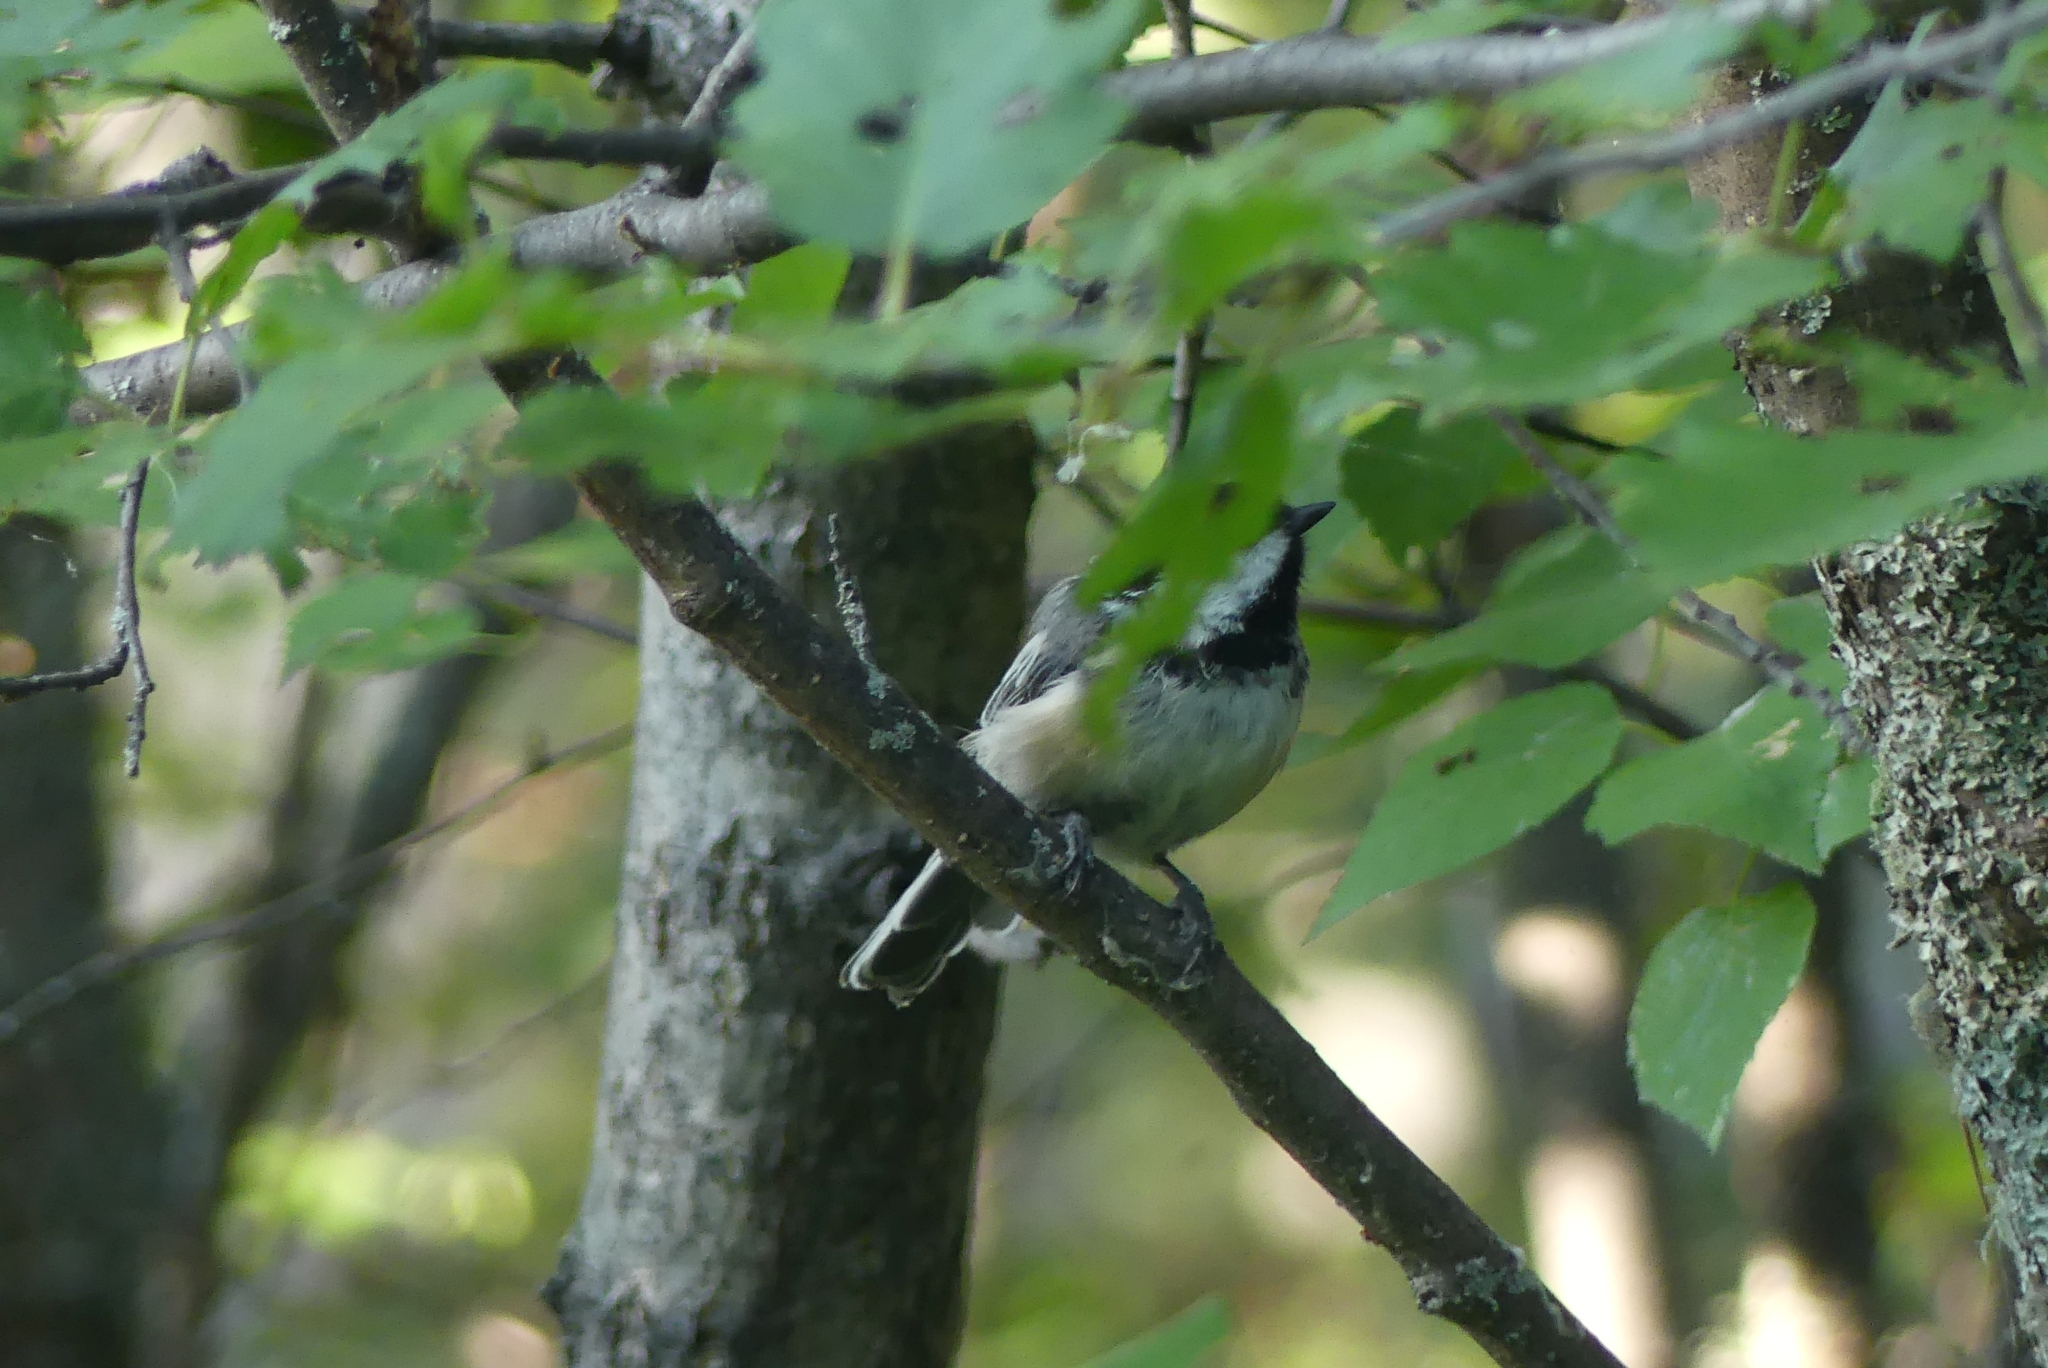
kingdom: Animalia
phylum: Chordata
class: Aves
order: Passeriformes
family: Paridae
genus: Poecile
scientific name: Poecile atricapillus
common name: Black-capped chickadee
